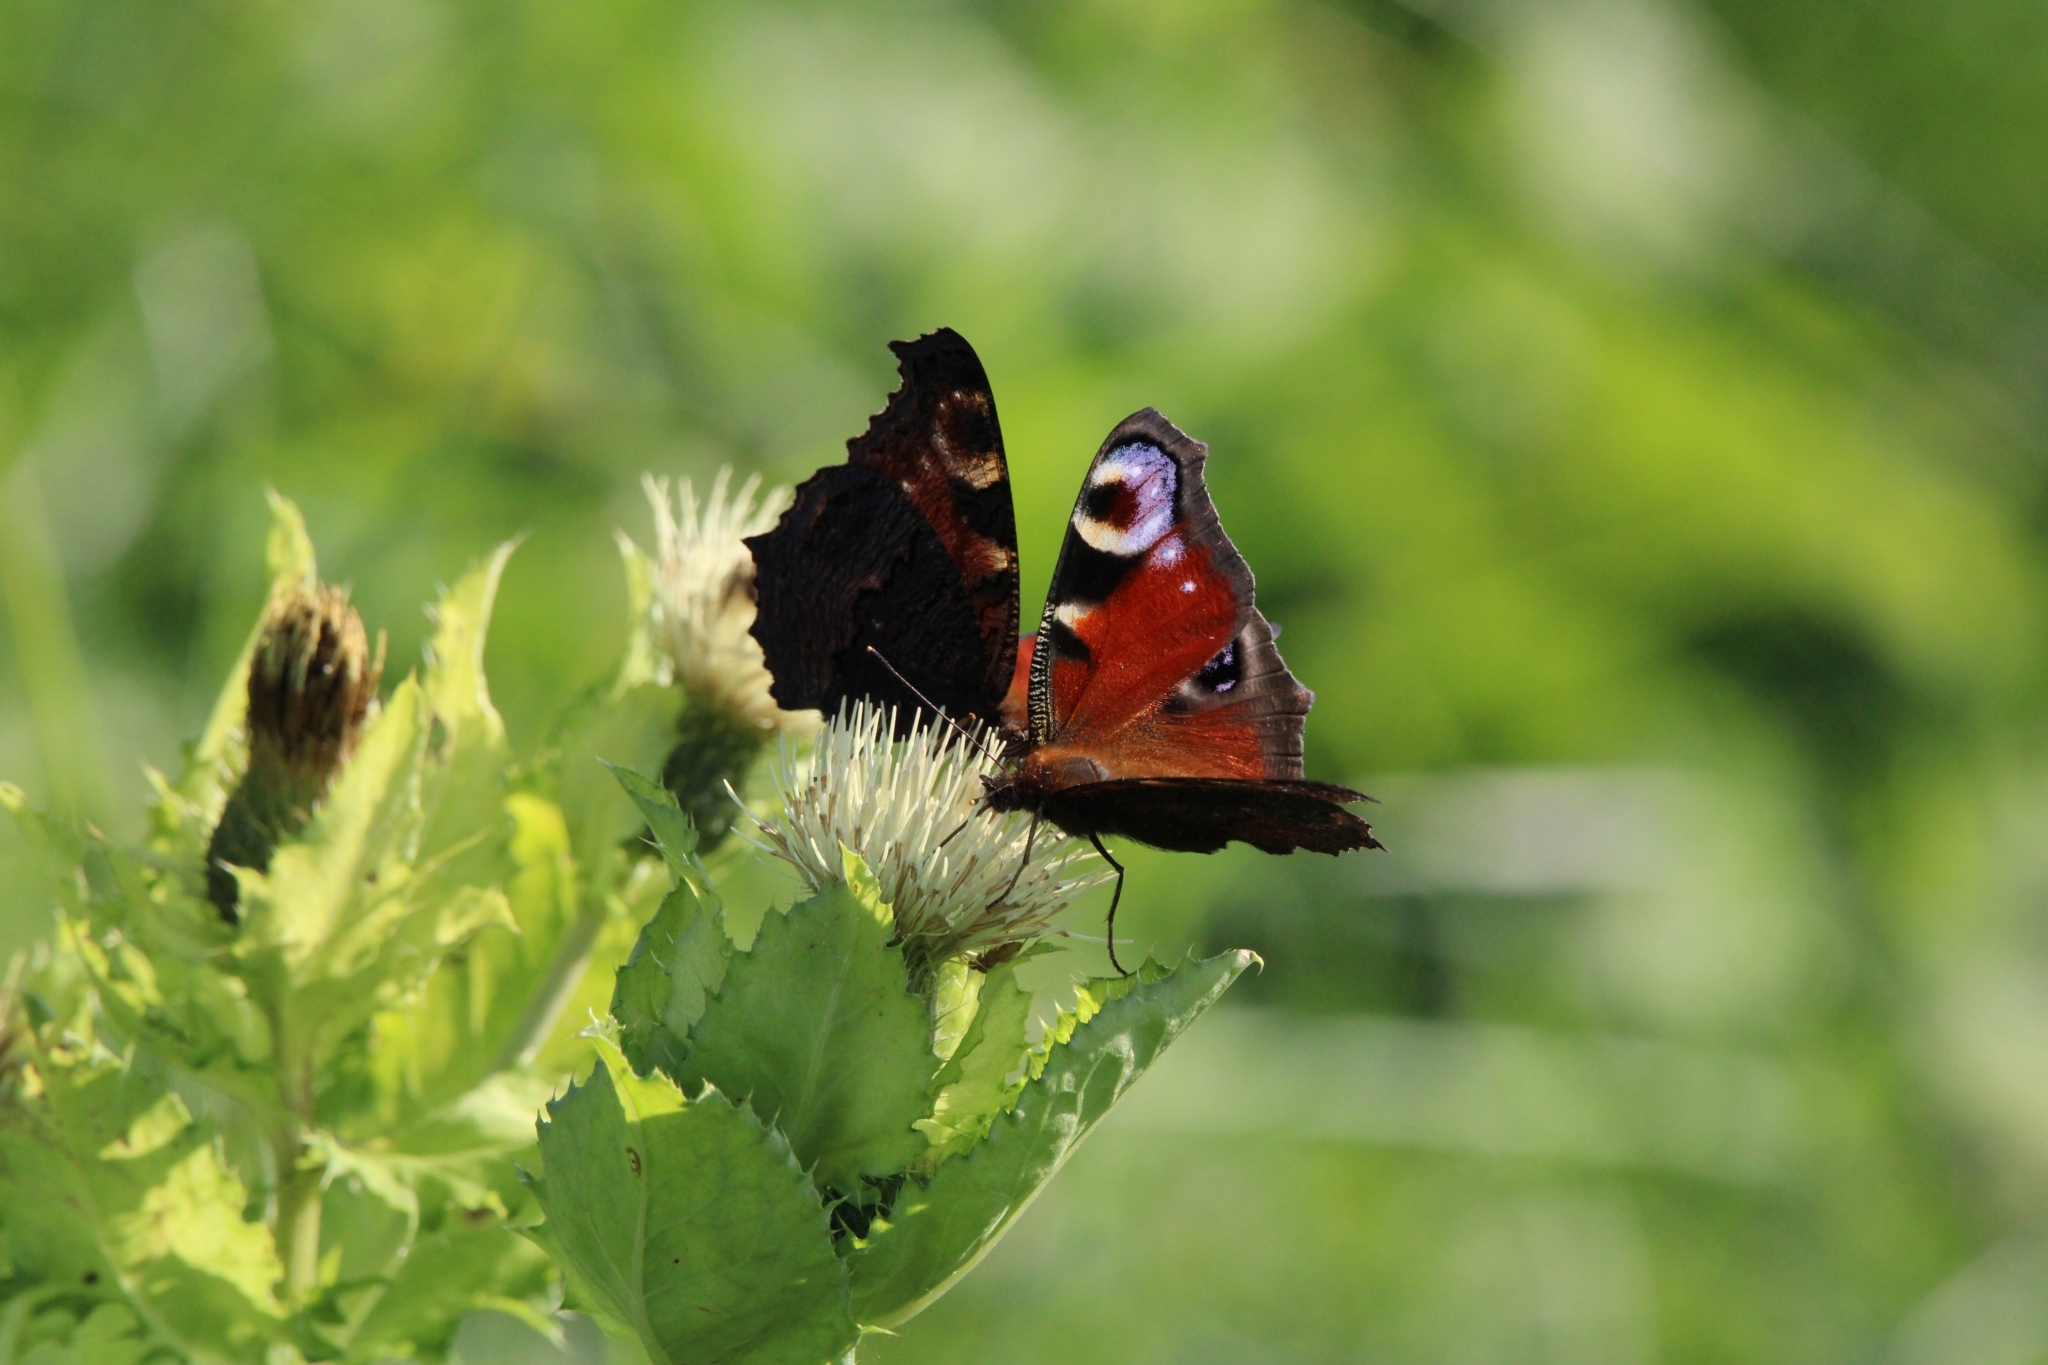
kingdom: Animalia
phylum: Arthropoda
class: Insecta
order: Lepidoptera
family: Nymphalidae
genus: Aglais
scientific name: Aglais io
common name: Peacock
